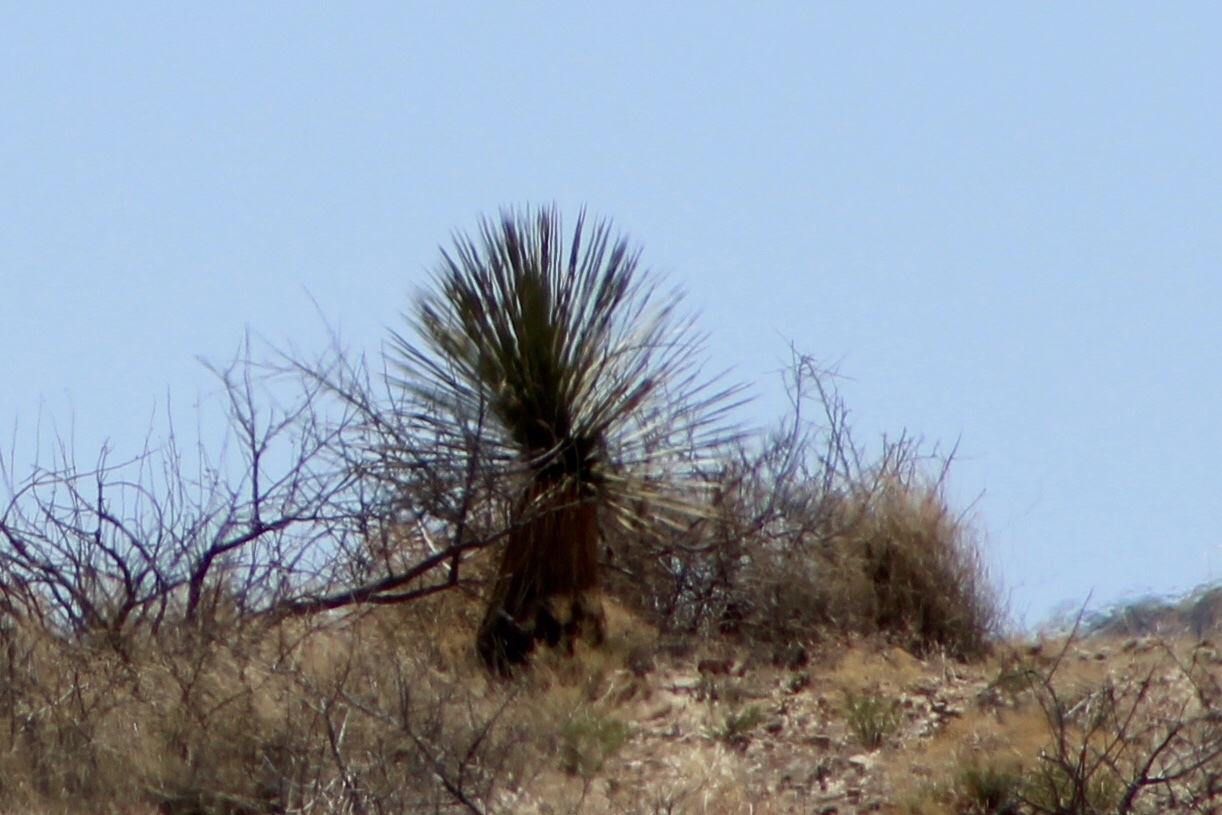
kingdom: Plantae
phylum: Tracheophyta
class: Liliopsida
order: Asparagales
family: Asparagaceae
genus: Yucca
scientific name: Yucca elata
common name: Palmella
